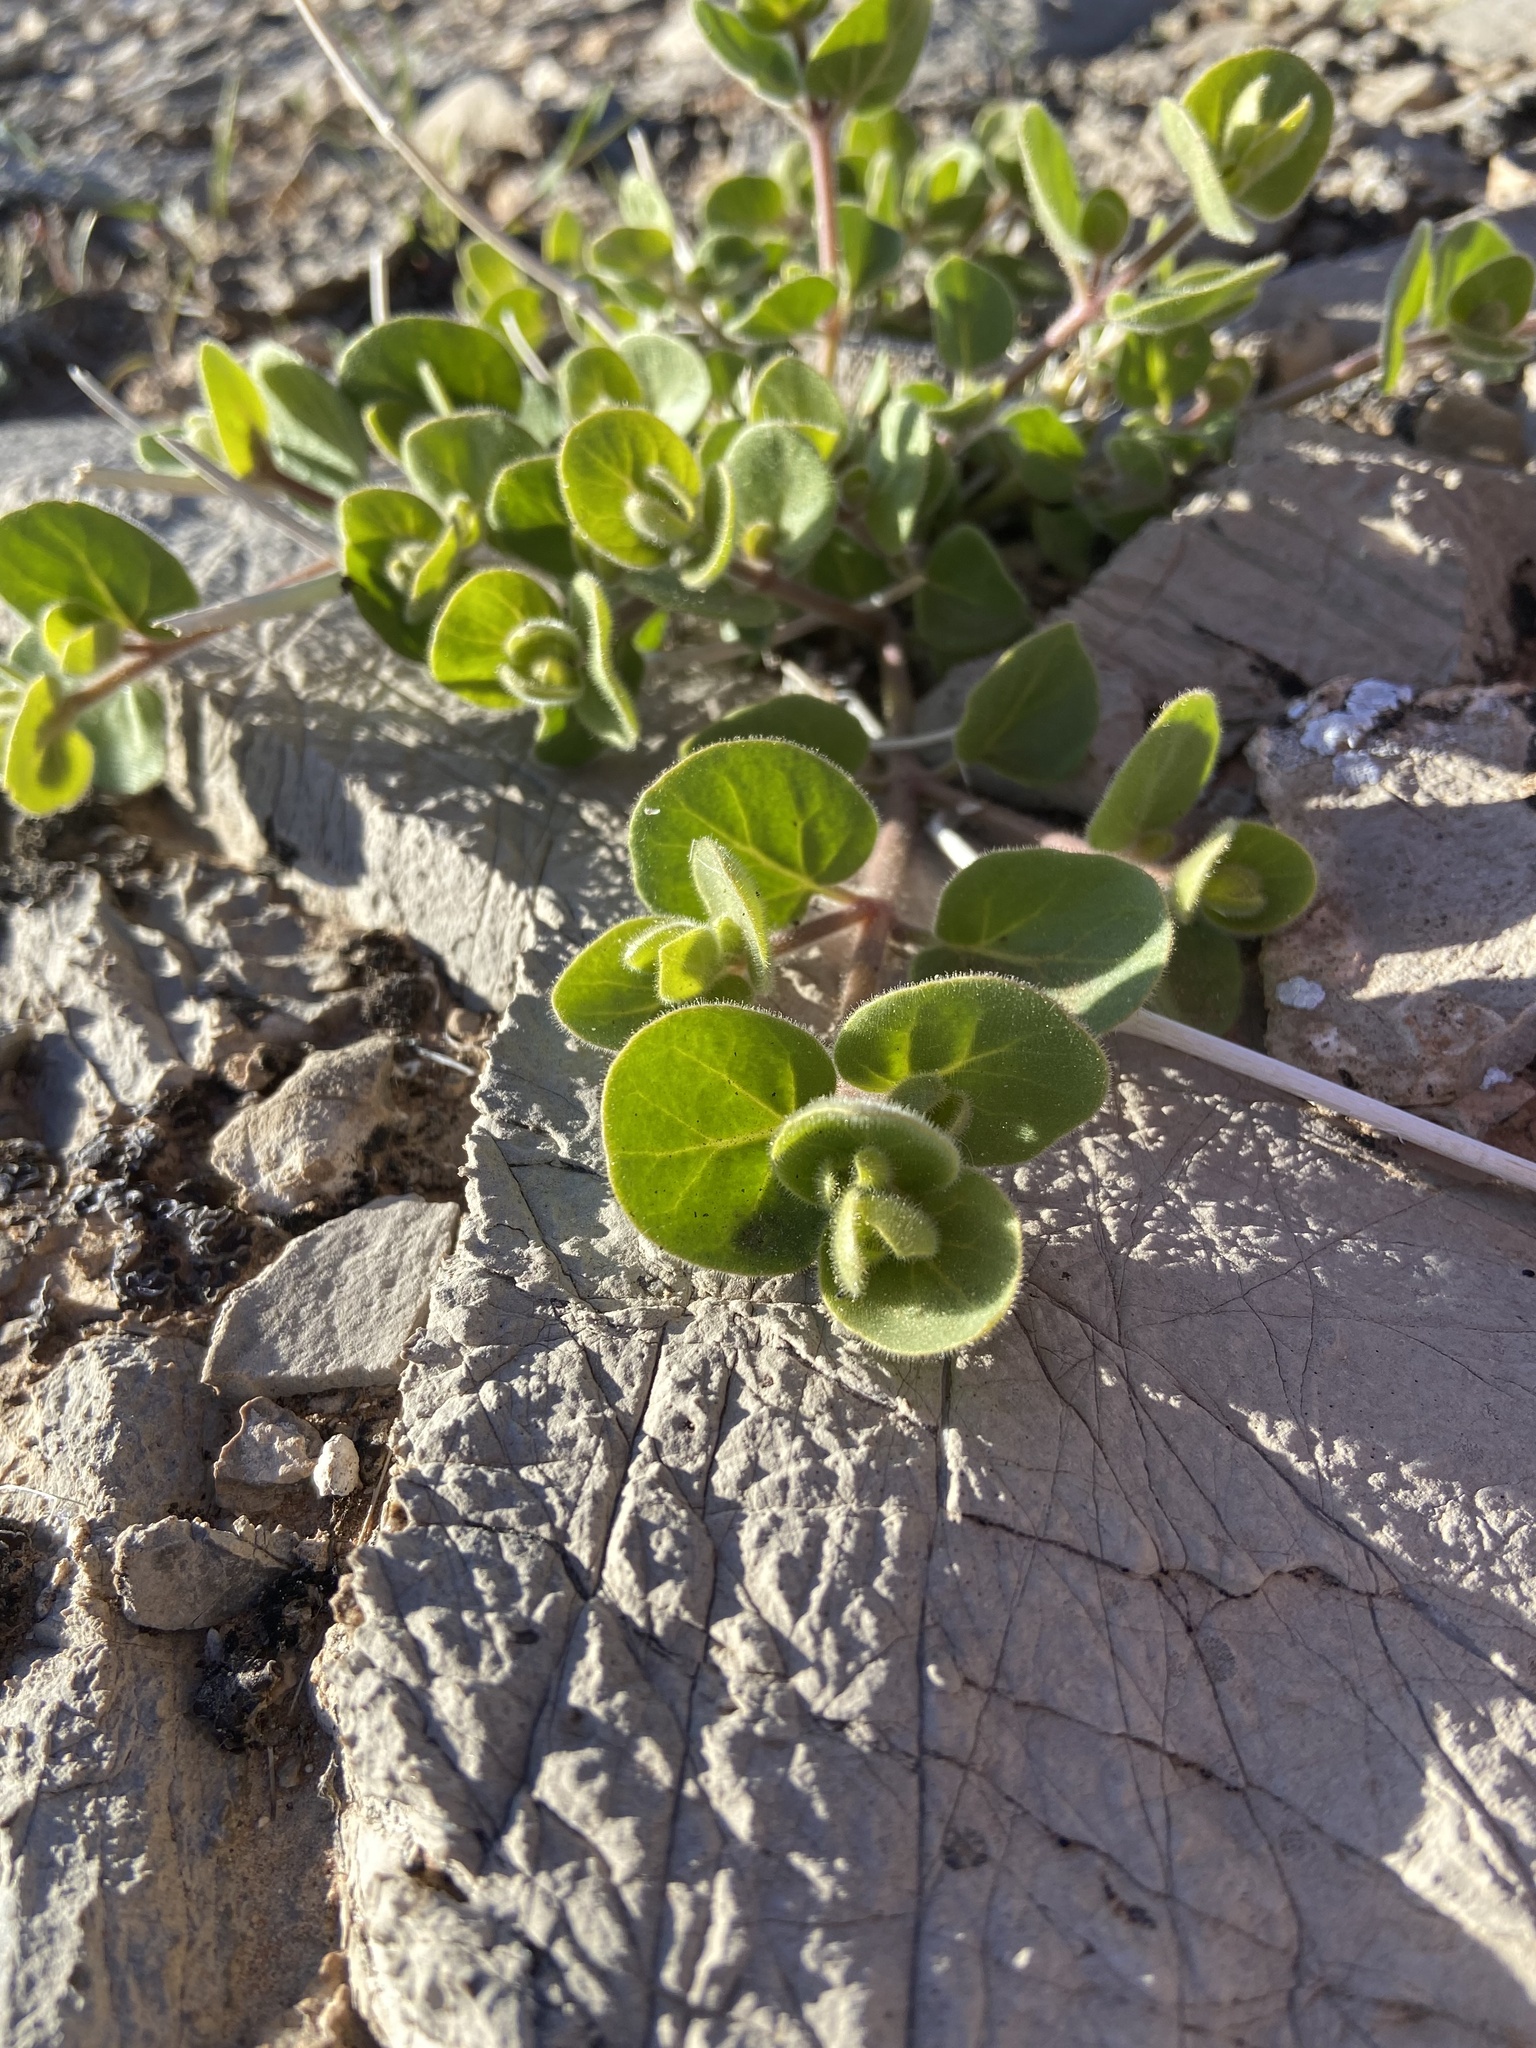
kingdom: Plantae
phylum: Tracheophyta
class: Magnoliopsida
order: Caryophyllales
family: Nyctaginaceae
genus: Mirabilis
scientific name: Mirabilis laevis
